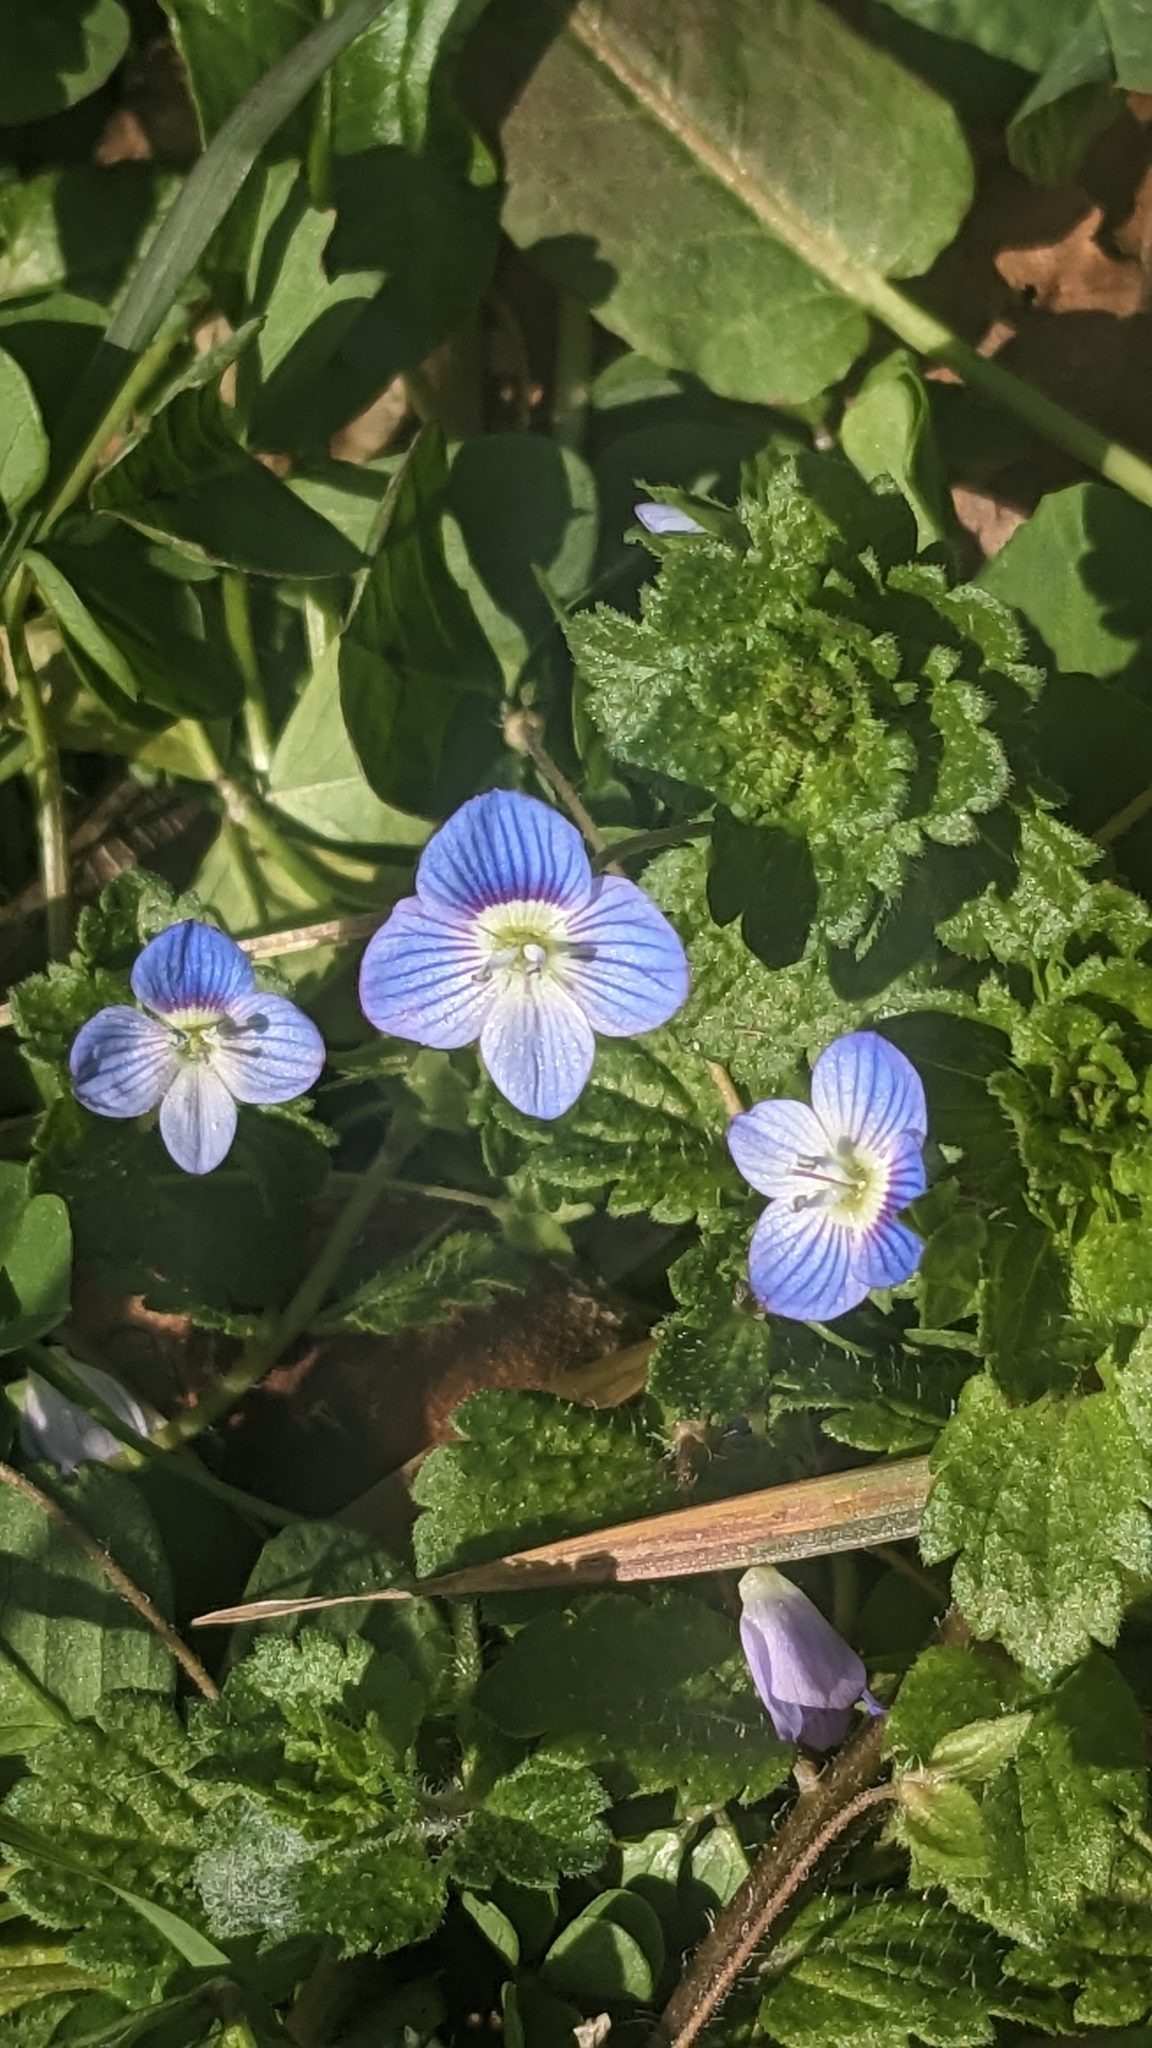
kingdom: Plantae
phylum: Tracheophyta
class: Magnoliopsida
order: Lamiales
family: Plantaginaceae
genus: Veronica
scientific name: Veronica persica
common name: Common field-speedwell
